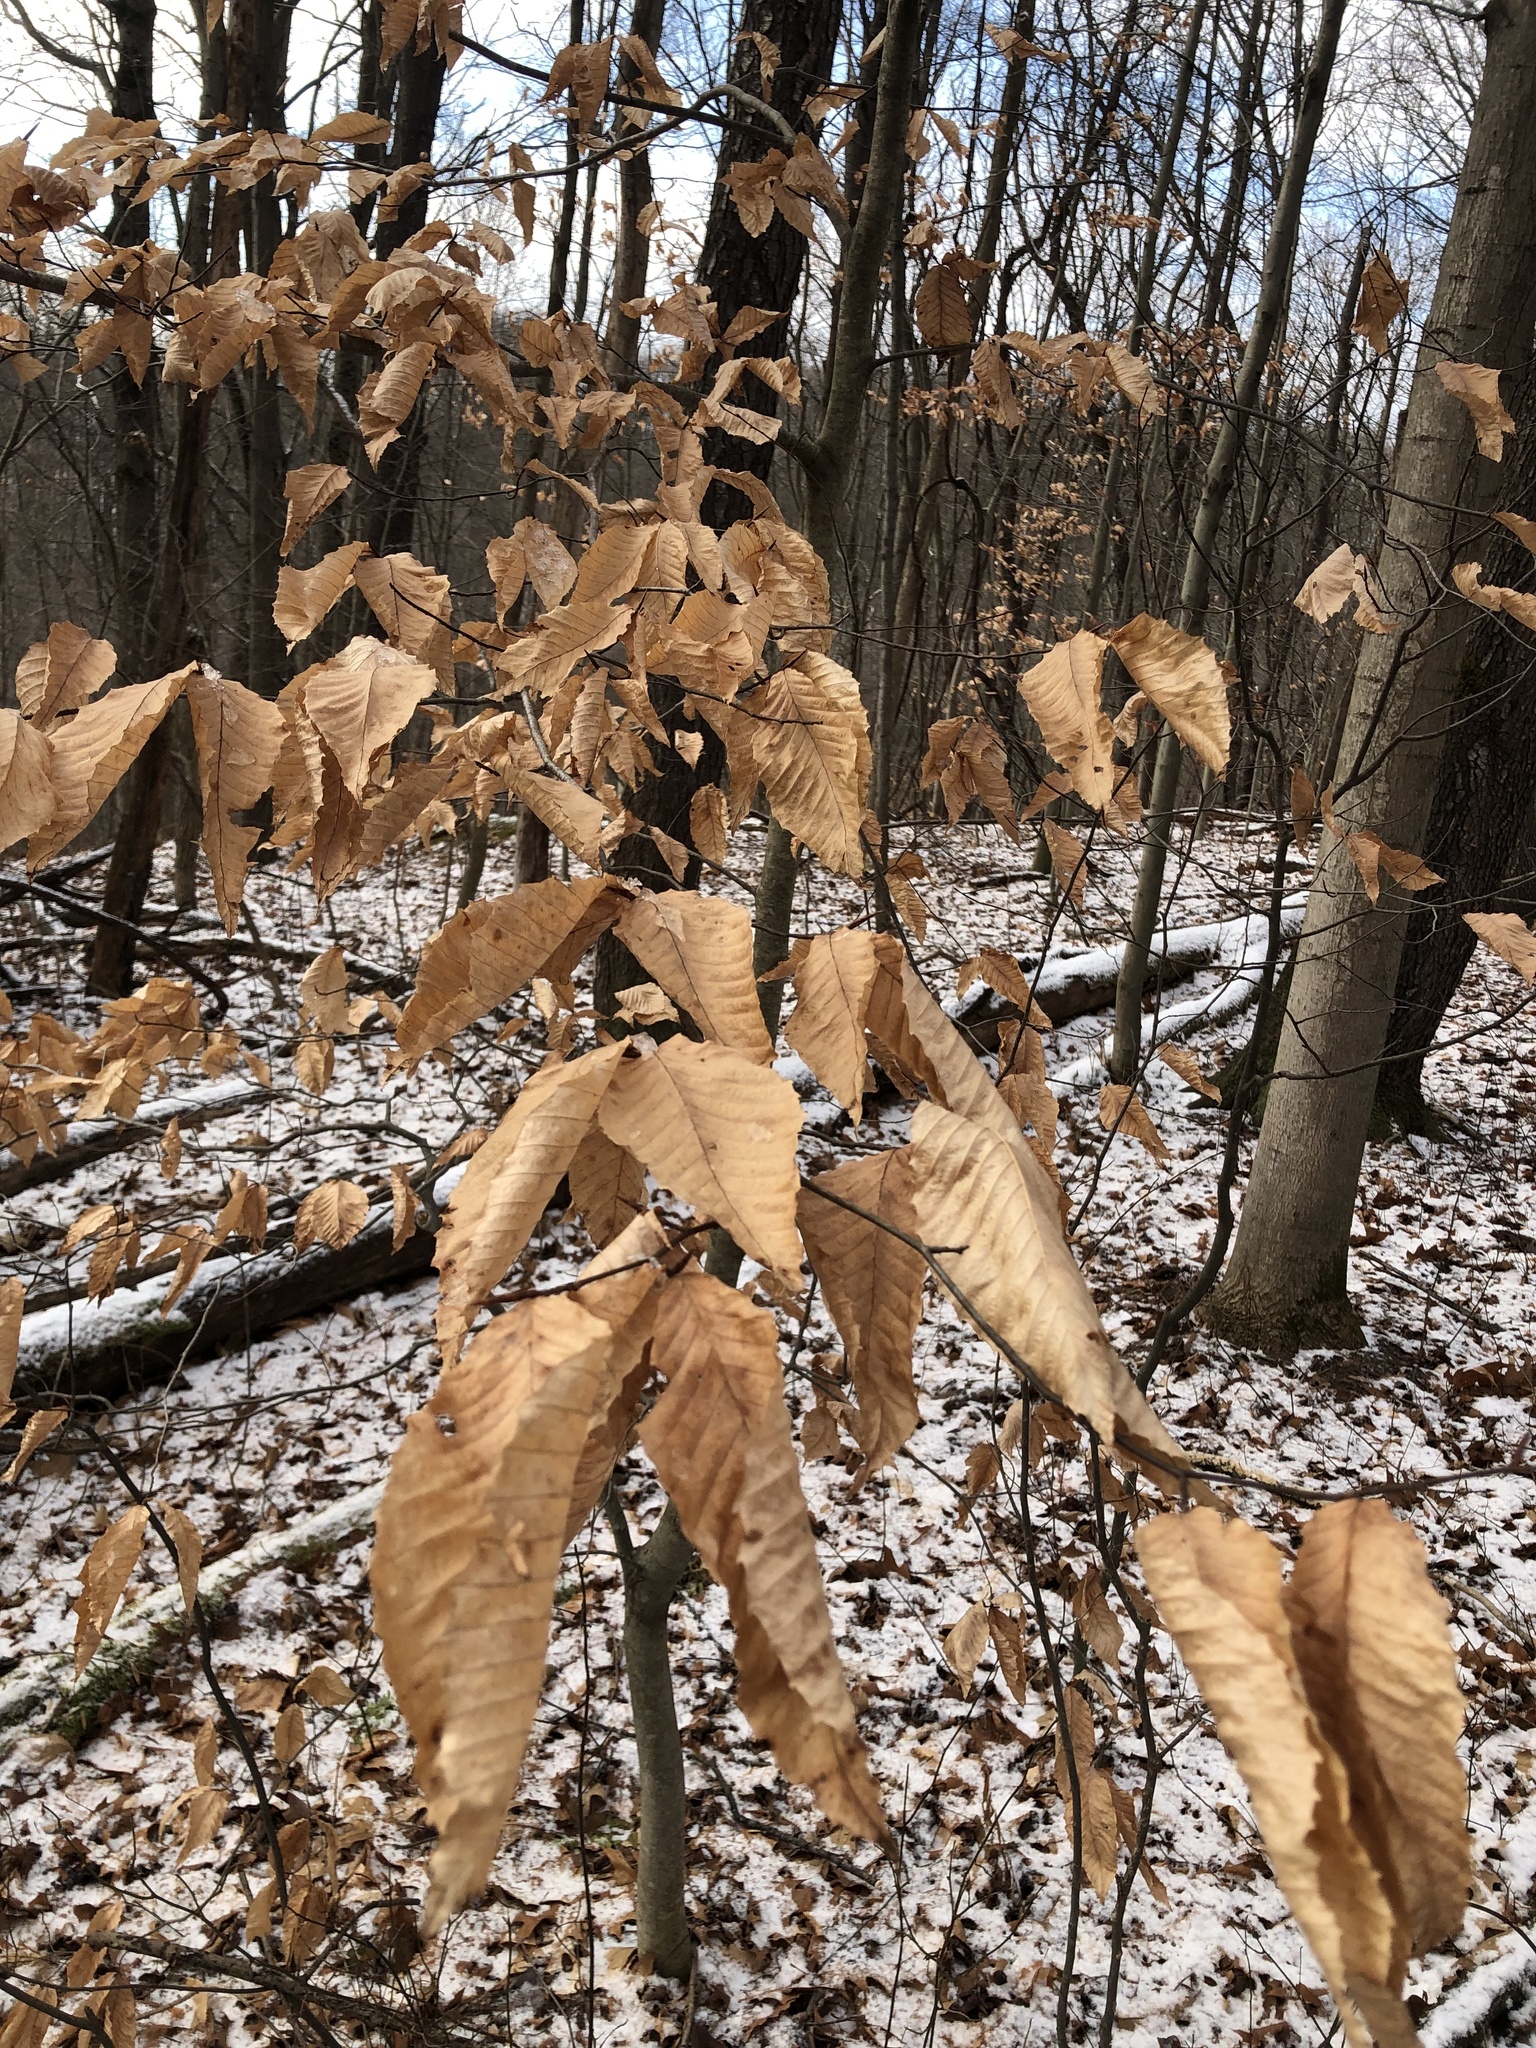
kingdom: Plantae
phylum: Tracheophyta
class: Magnoliopsida
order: Fagales
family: Fagaceae
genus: Fagus
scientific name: Fagus grandifolia
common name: American beech
